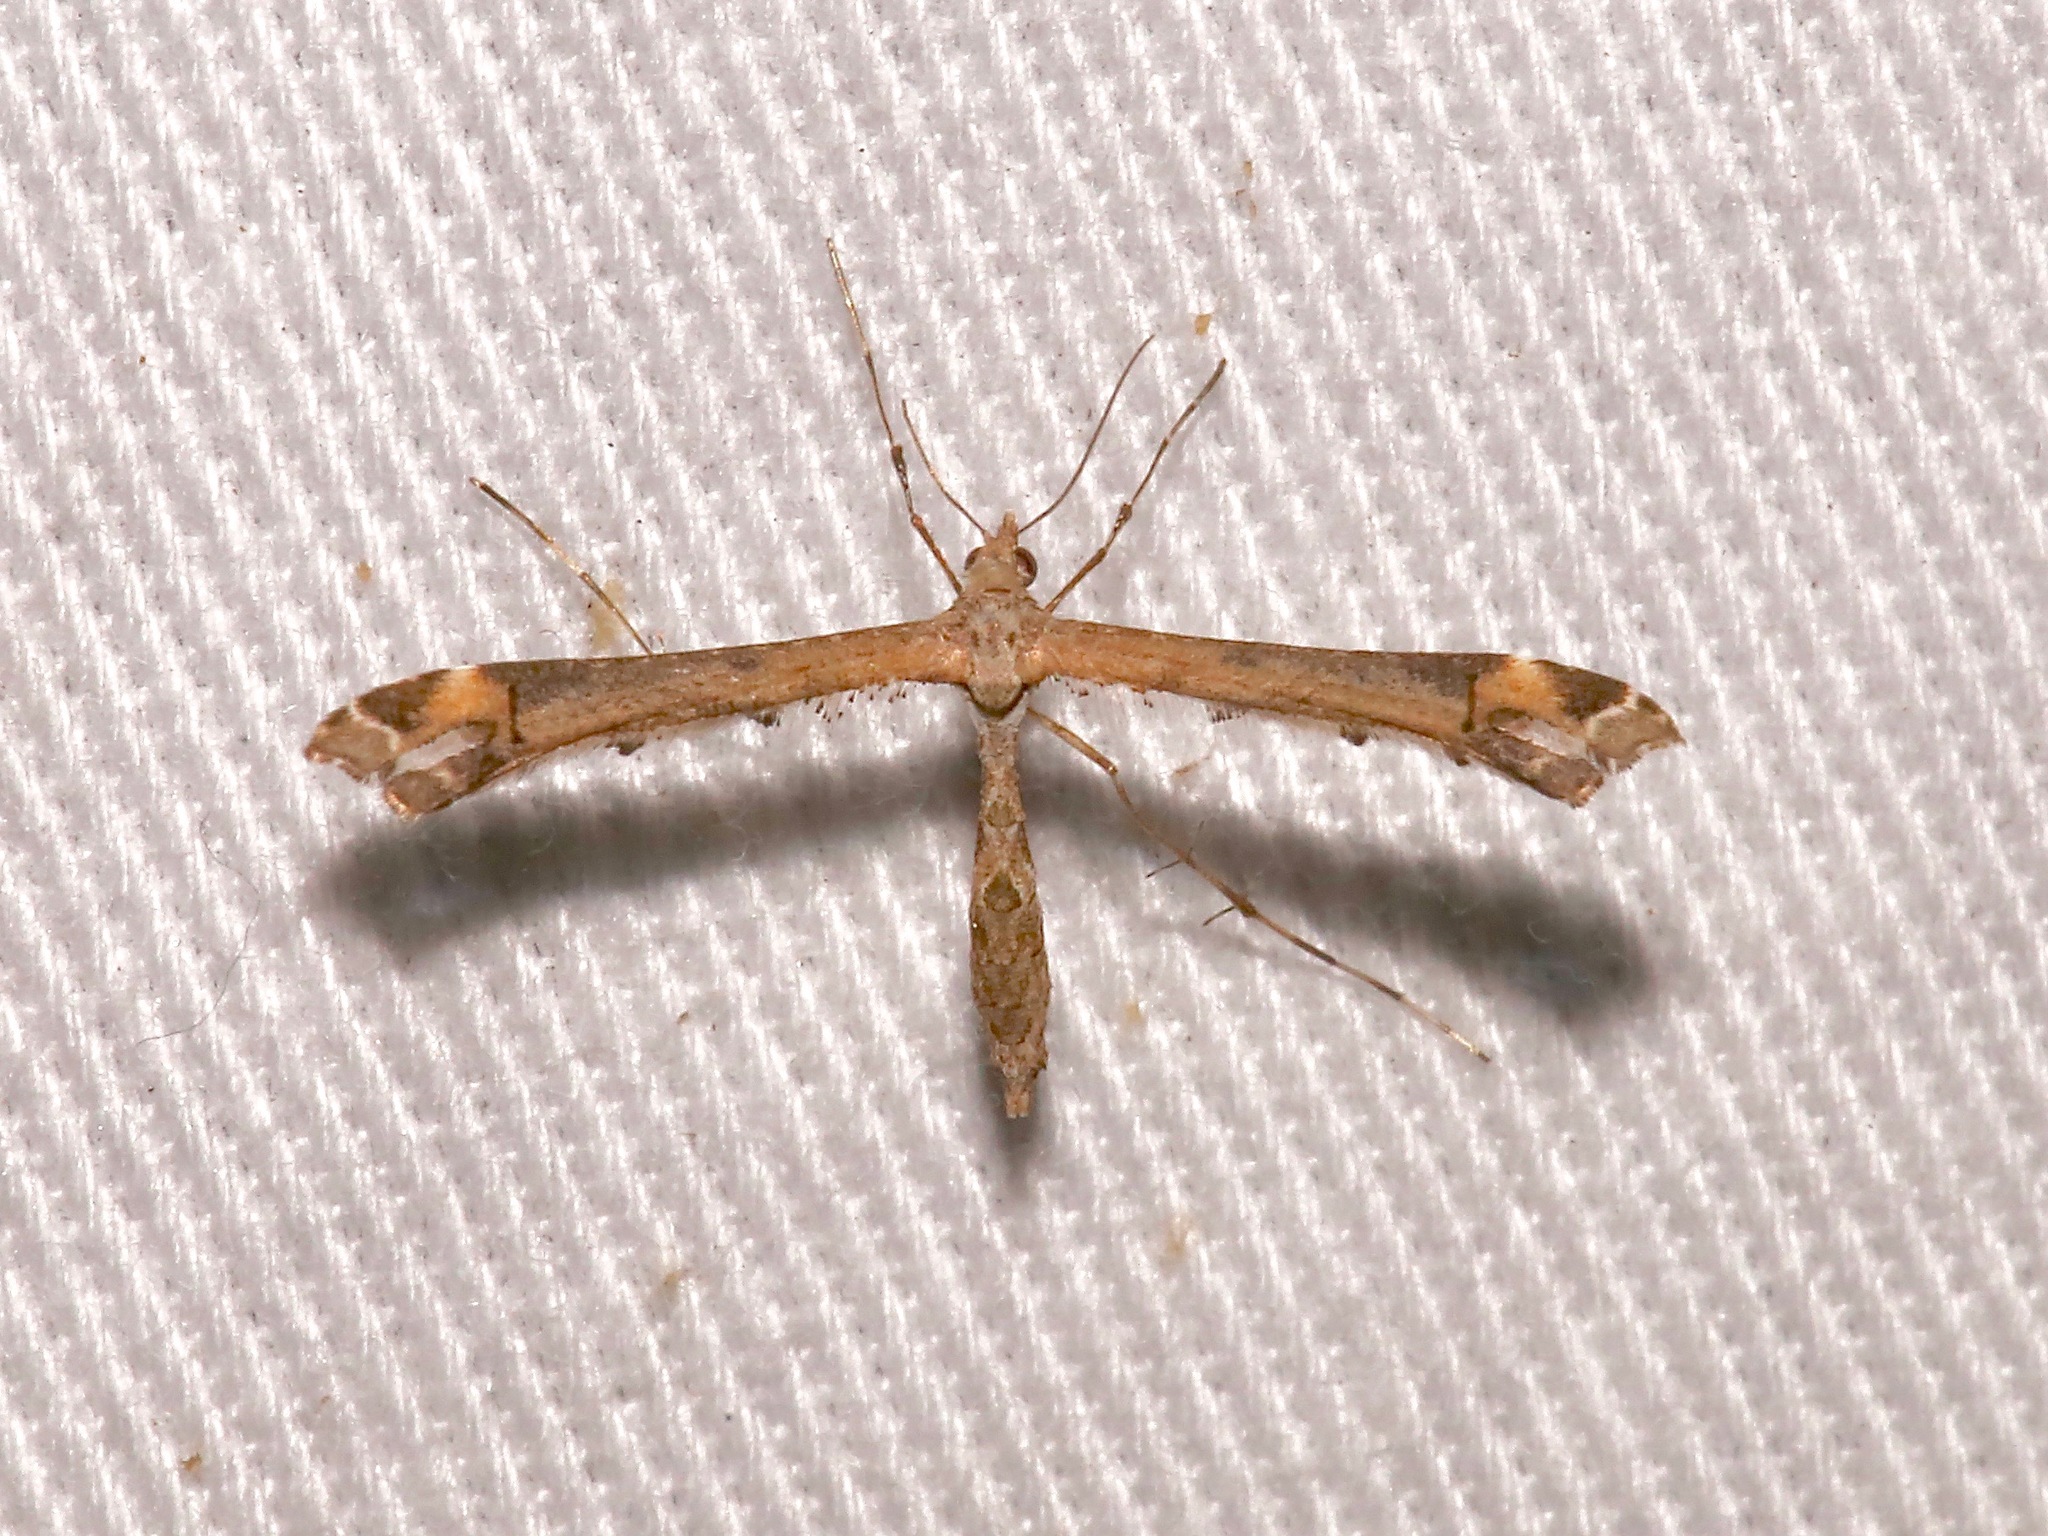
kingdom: Animalia
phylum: Arthropoda
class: Insecta
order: Lepidoptera
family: Pterophoridae
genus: Anstenoptilia
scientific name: Anstenoptilia marmarodactyla
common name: Moth
